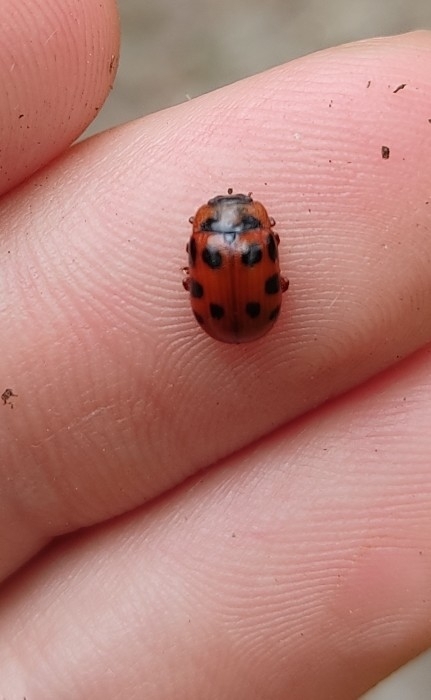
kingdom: Animalia
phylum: Arthropoda
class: Insecta
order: Coleoptera
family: Chrysomelidae
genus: Gonioctena
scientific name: Gonioctena decemnotata
